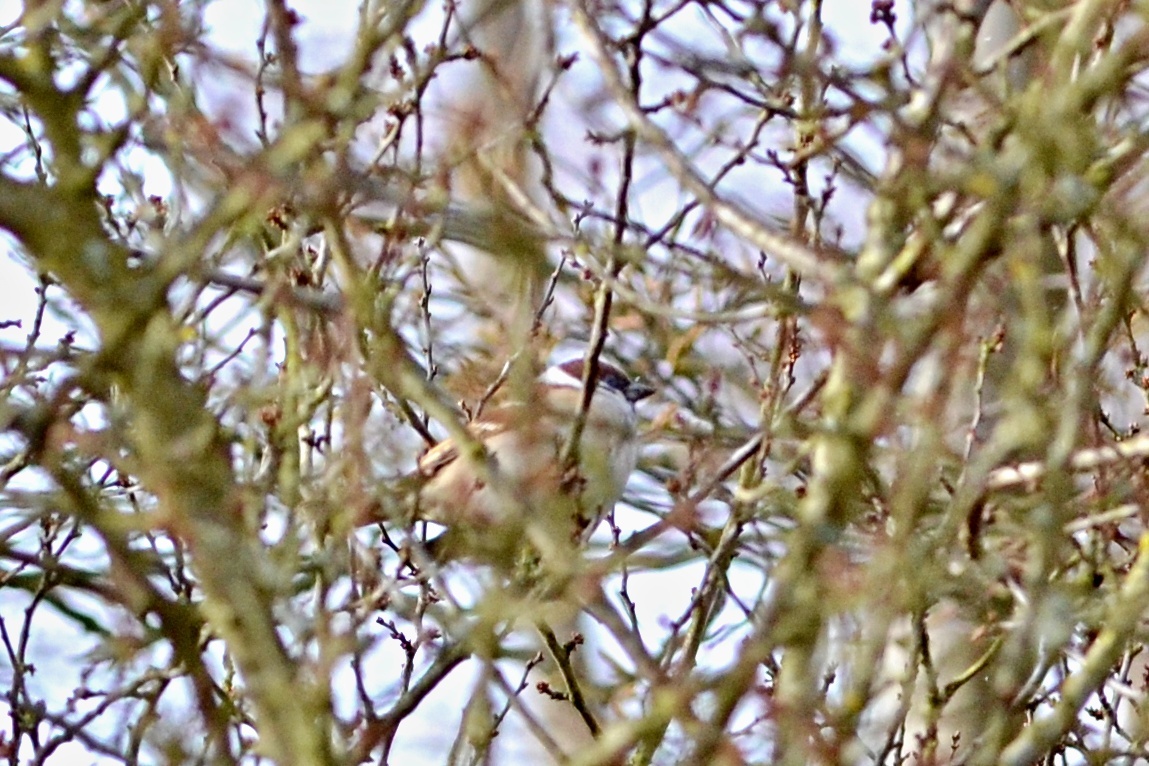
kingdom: Animalia
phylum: Chordata
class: Aves
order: Passeriformes
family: Passeridae
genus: Passer
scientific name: Passer montanus
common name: Eurasian tree sparrow
